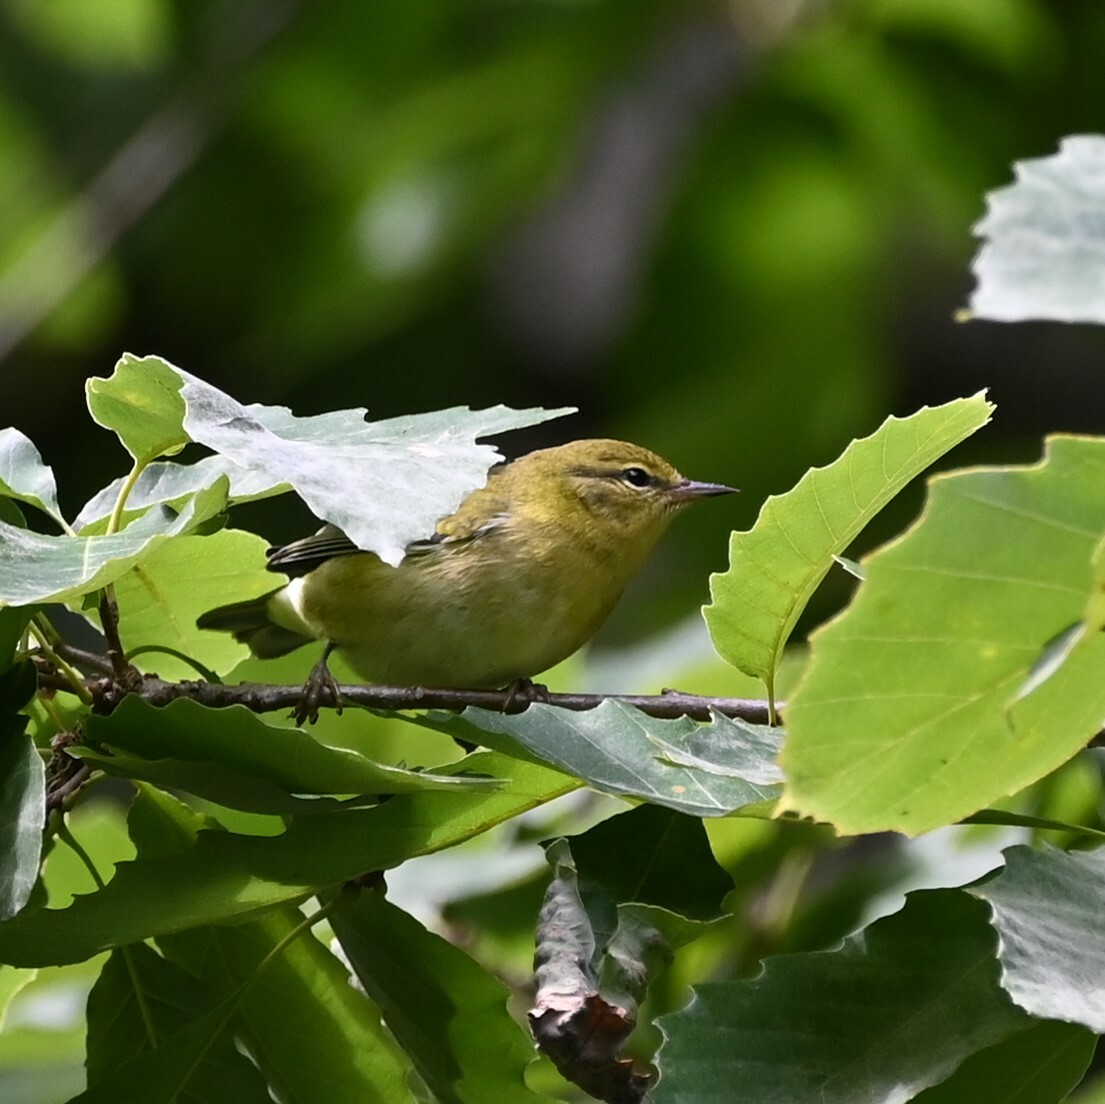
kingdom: Animalia
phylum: Chordata
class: Aves
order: Passeriformes
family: Parulidae
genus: Leiothlypis
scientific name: Leiothlypis peregrina
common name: Tennessee warbler
